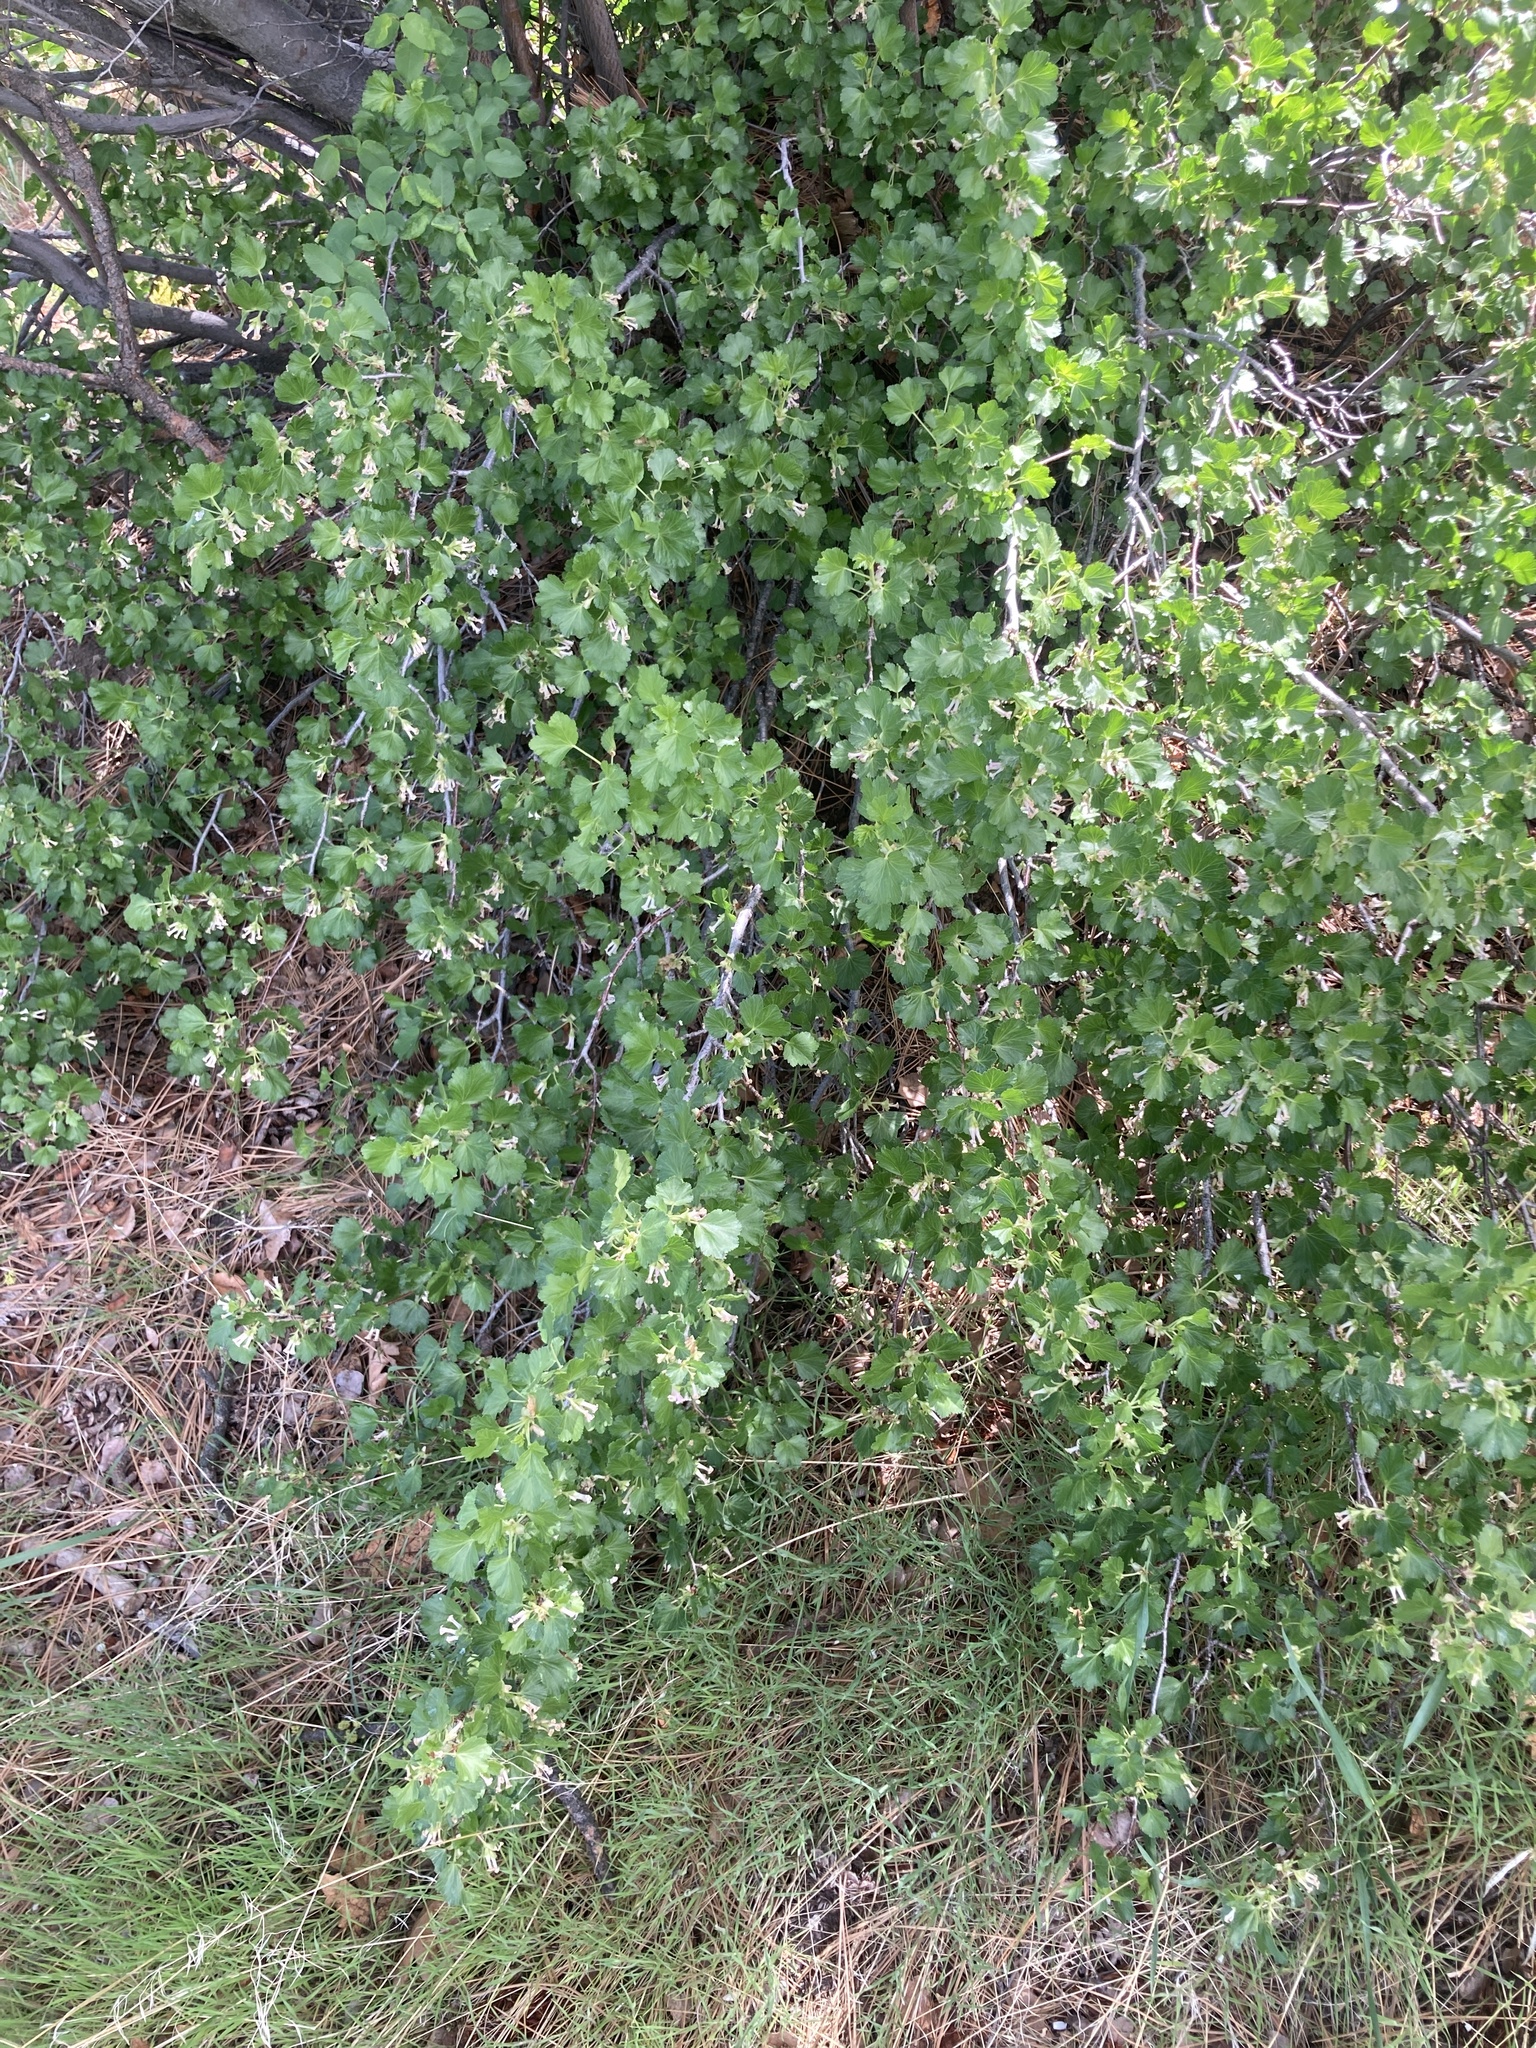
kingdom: Plantae
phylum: Tracheophyta
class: Magnoliopsida
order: Saxifragales
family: Grossulariaceae
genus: Ribes
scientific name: Ribes cereum
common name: Wax currant
